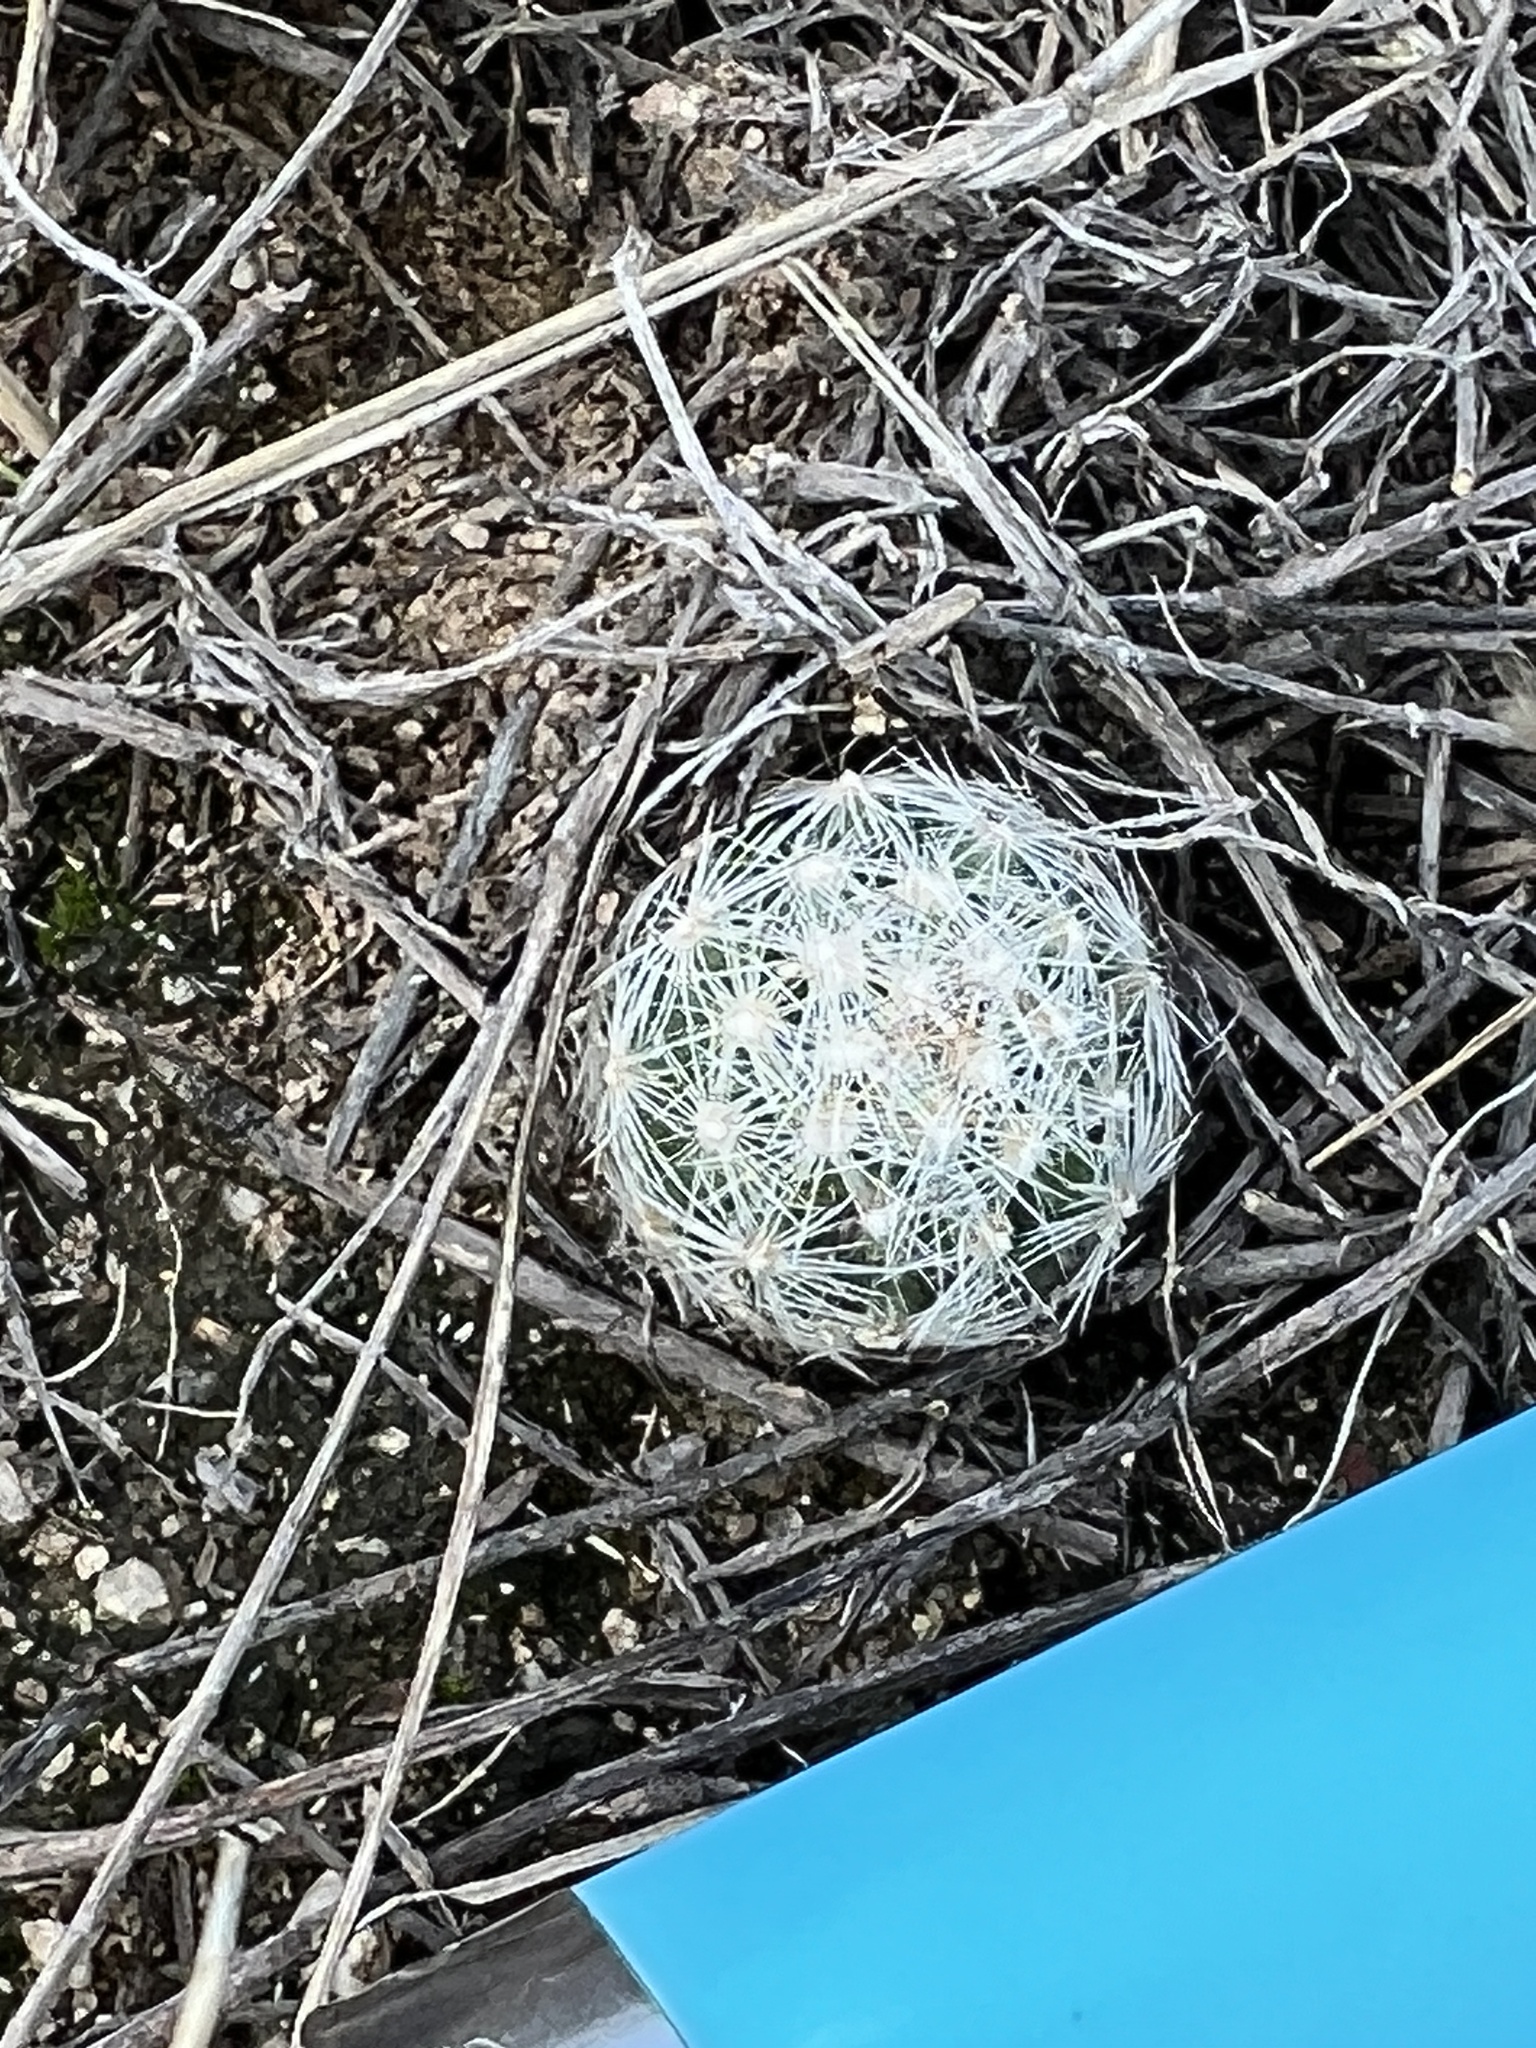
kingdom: Plantae
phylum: Tracheophyta
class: Magnoliopsida
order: Caryophyllales
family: Cactaceae
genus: Pelecyphora
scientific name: Pelecyphora vivipara
